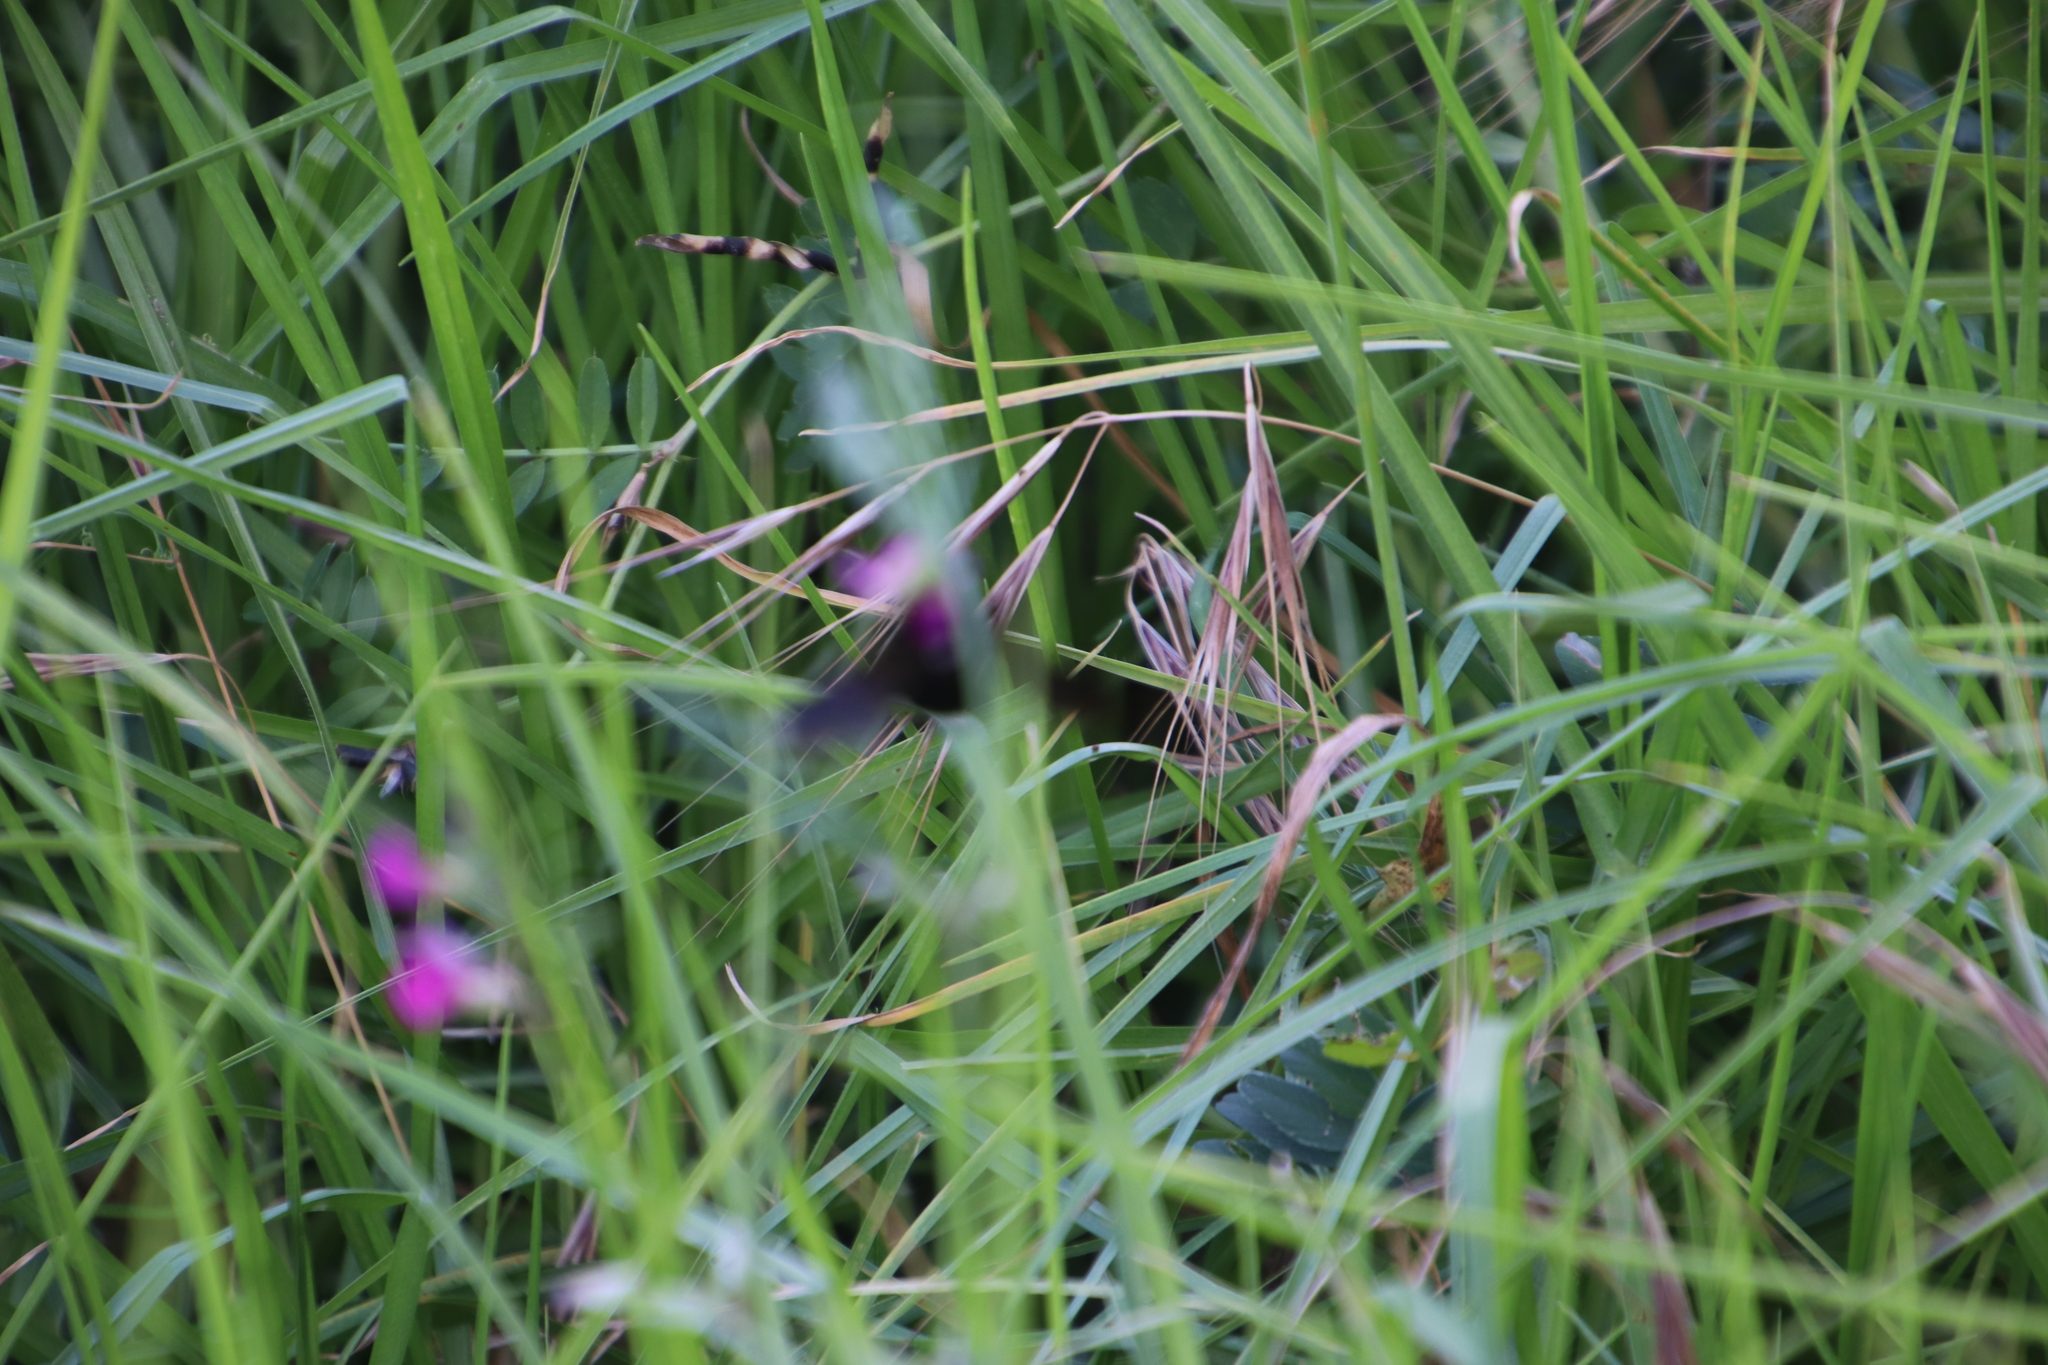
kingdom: Animalia
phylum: Arthropoda
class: Insecta
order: Hymenoptera
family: Apidae
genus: Xylocopa
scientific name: Xylocopa caffra
